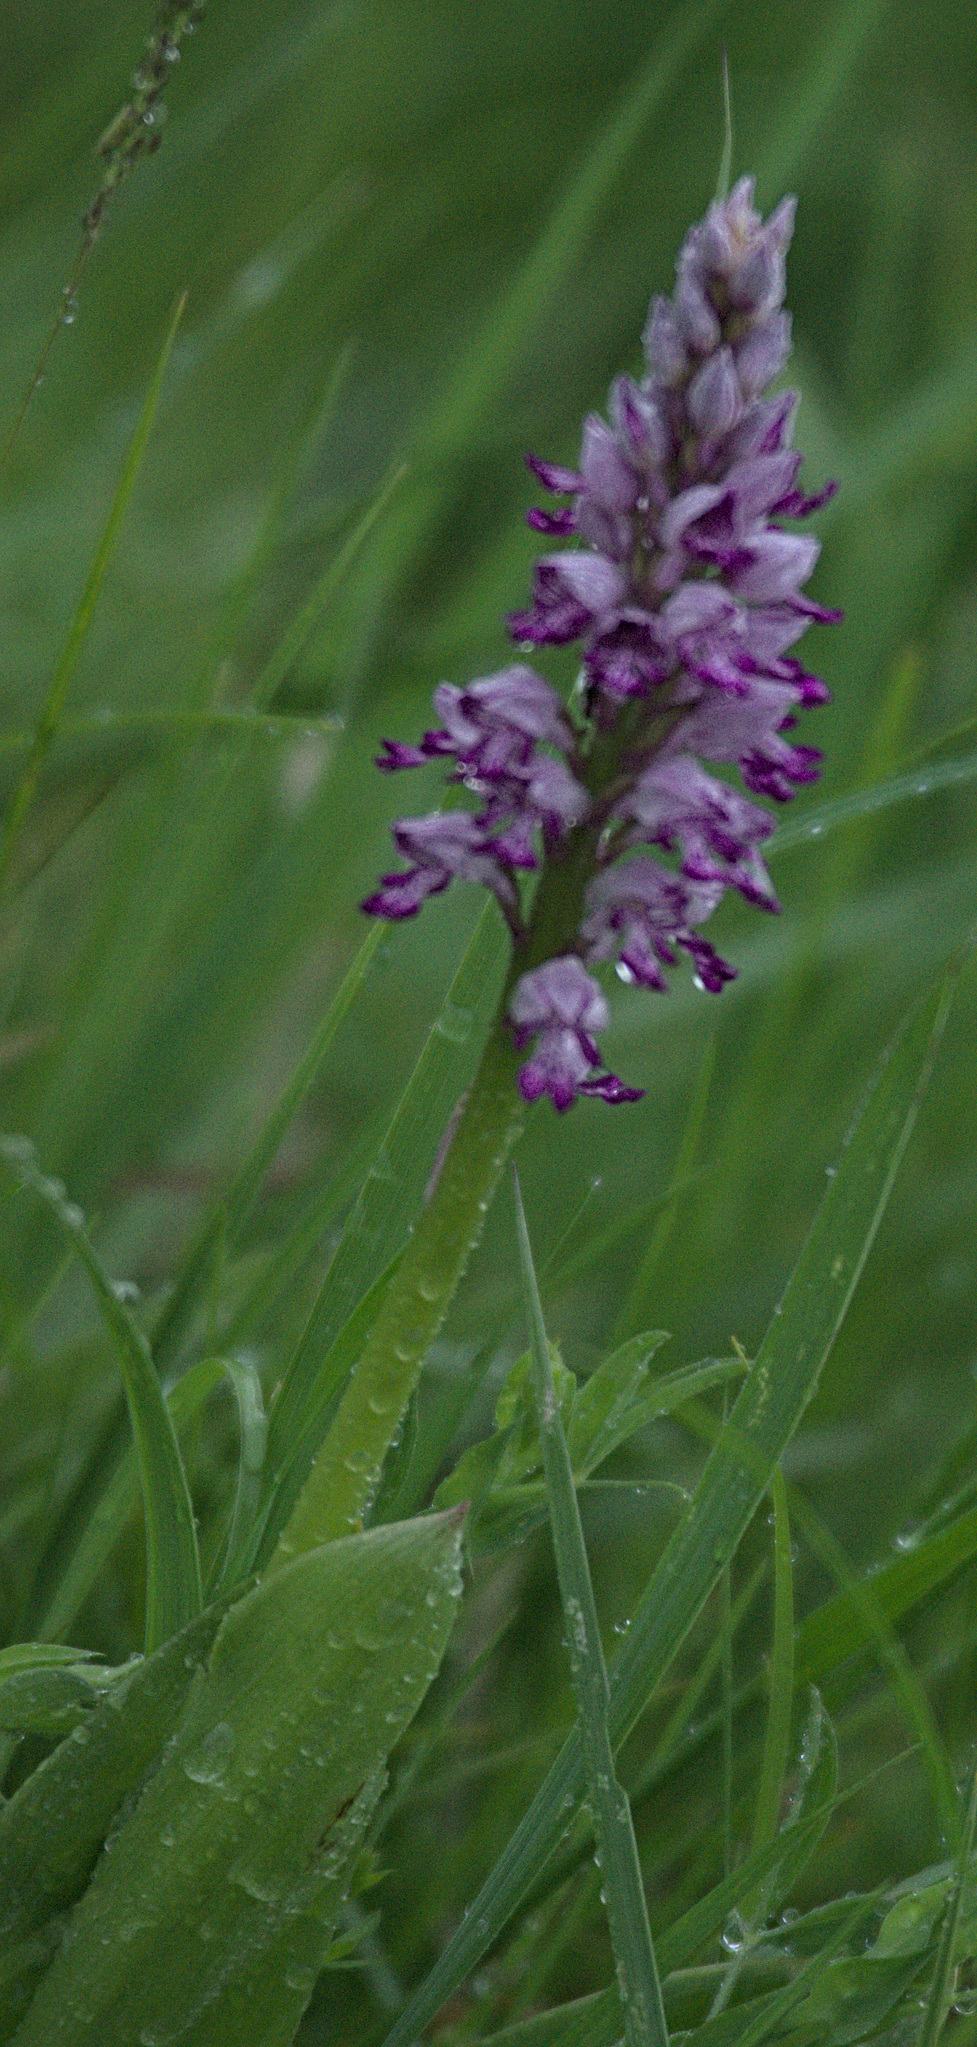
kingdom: Plantae
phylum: Tracheophyta
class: Liliopsida
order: Asparagales
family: Orchidaceae
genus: Orchis
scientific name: Orchis militaris
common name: Military orchid
